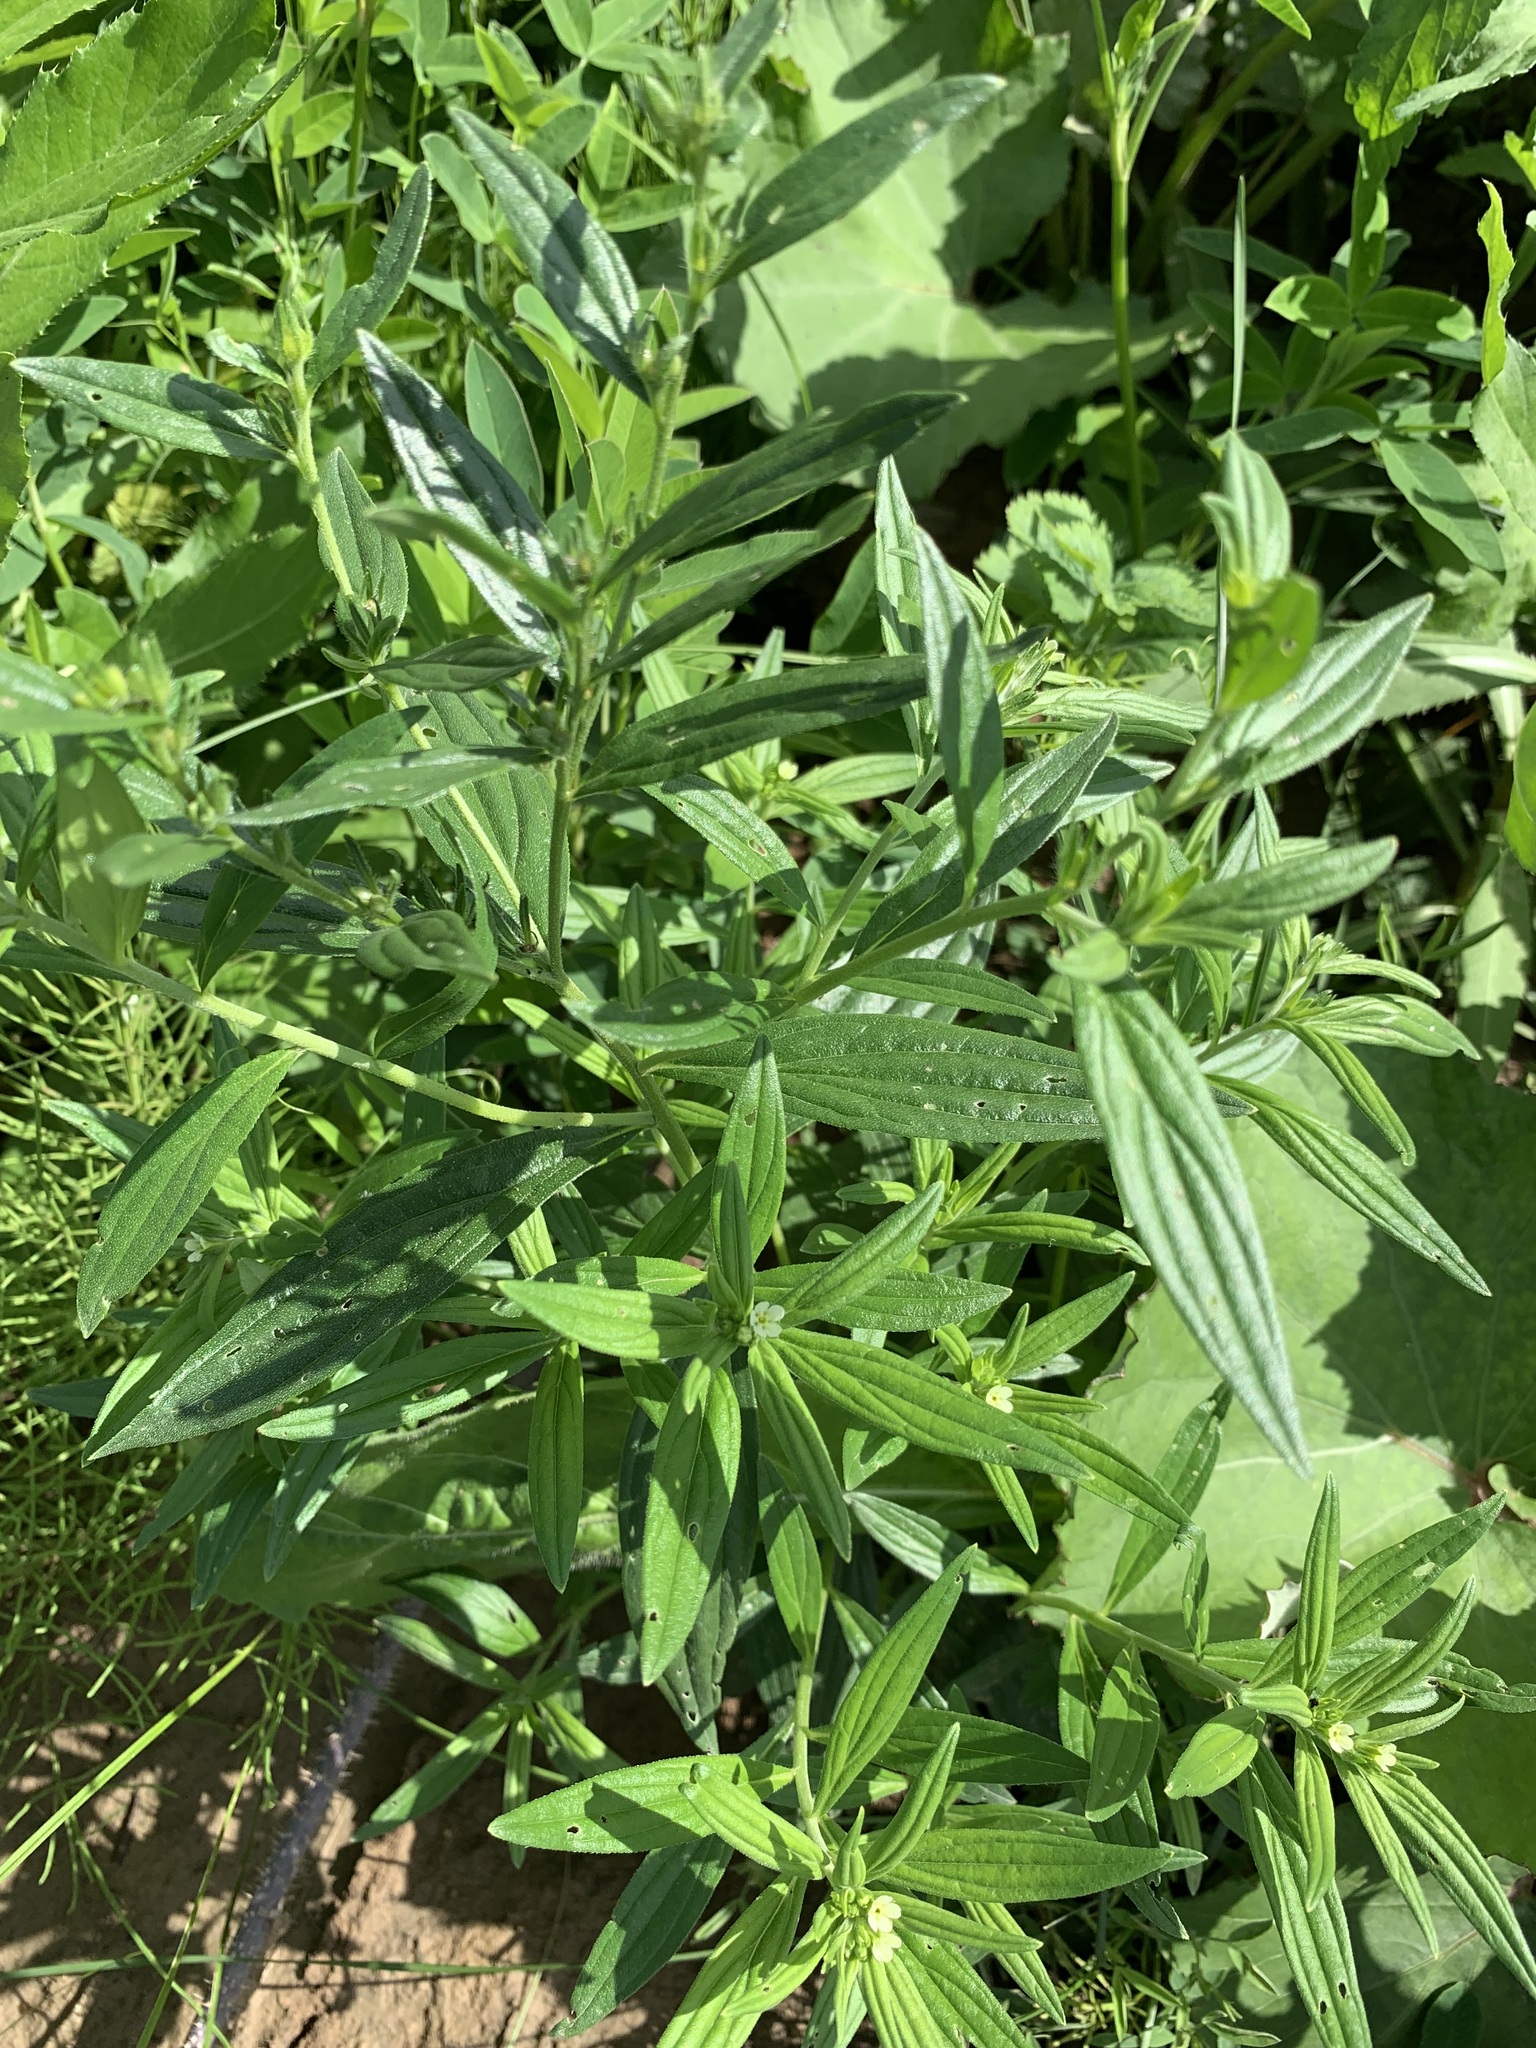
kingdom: Plantae
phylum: Tracheophyta
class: Magnoliopsida
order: Boraginales
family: Boraginaceae
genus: Lithospermum
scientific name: Lithospermum officinale
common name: Common gromwell
